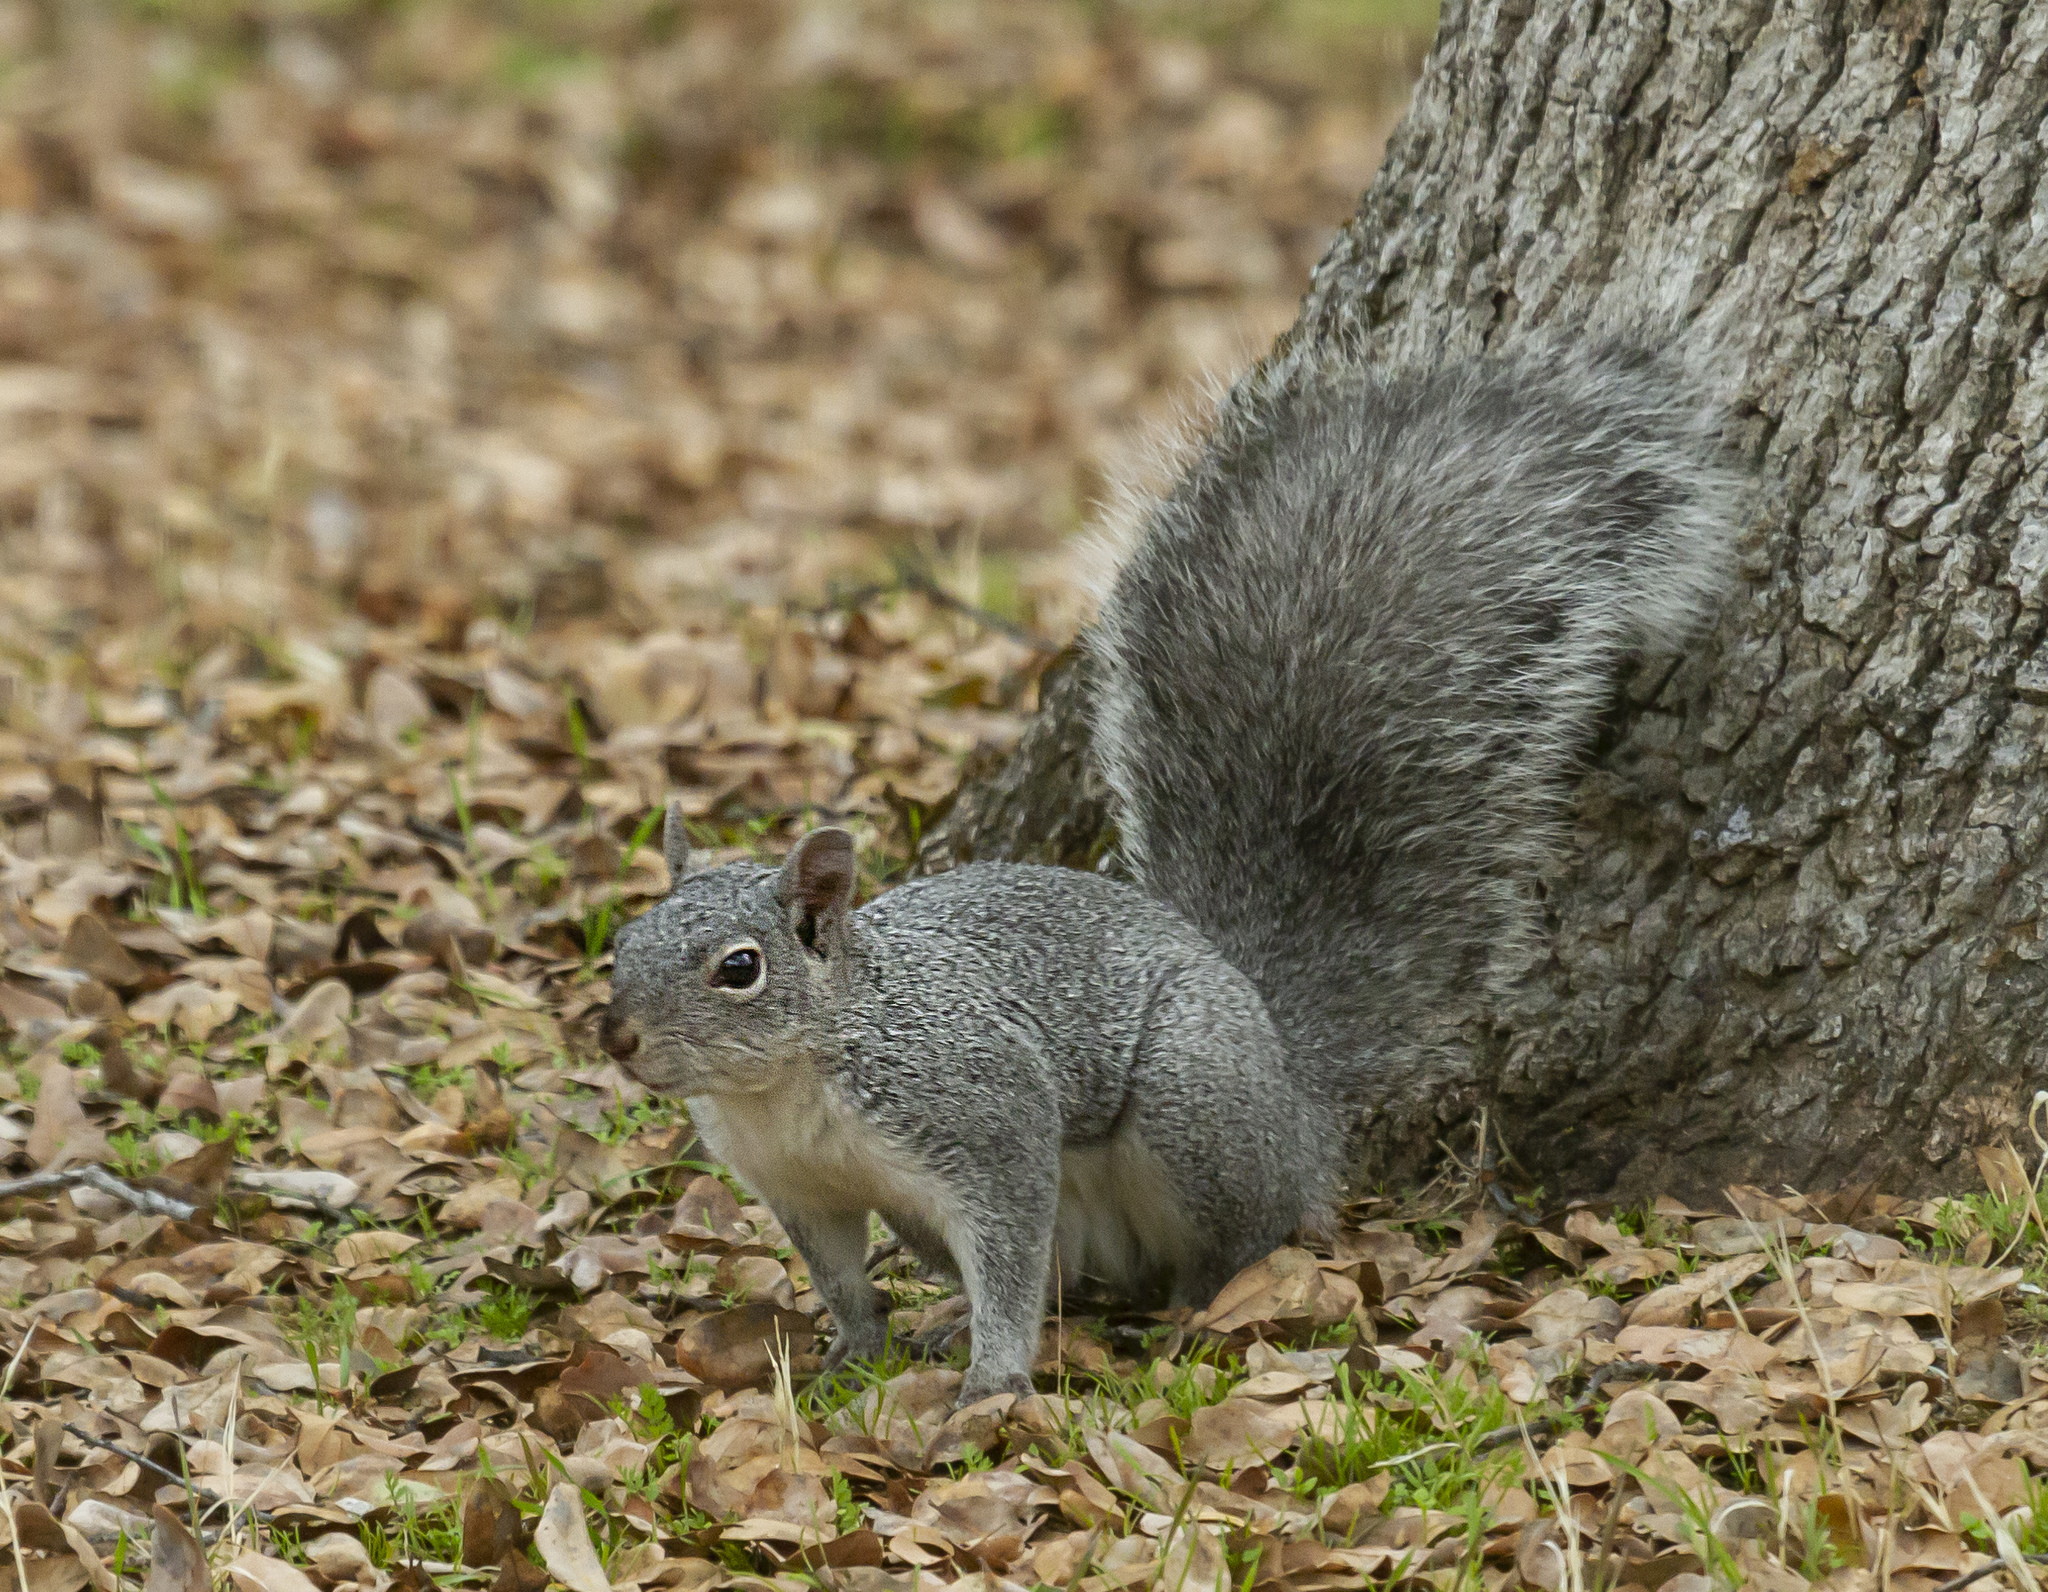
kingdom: Animalia
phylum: Chordata
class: Mammalia
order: Rodentia
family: Sciuridae
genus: Sciurus
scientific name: Sciurus griseus
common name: Western gray squirrel
